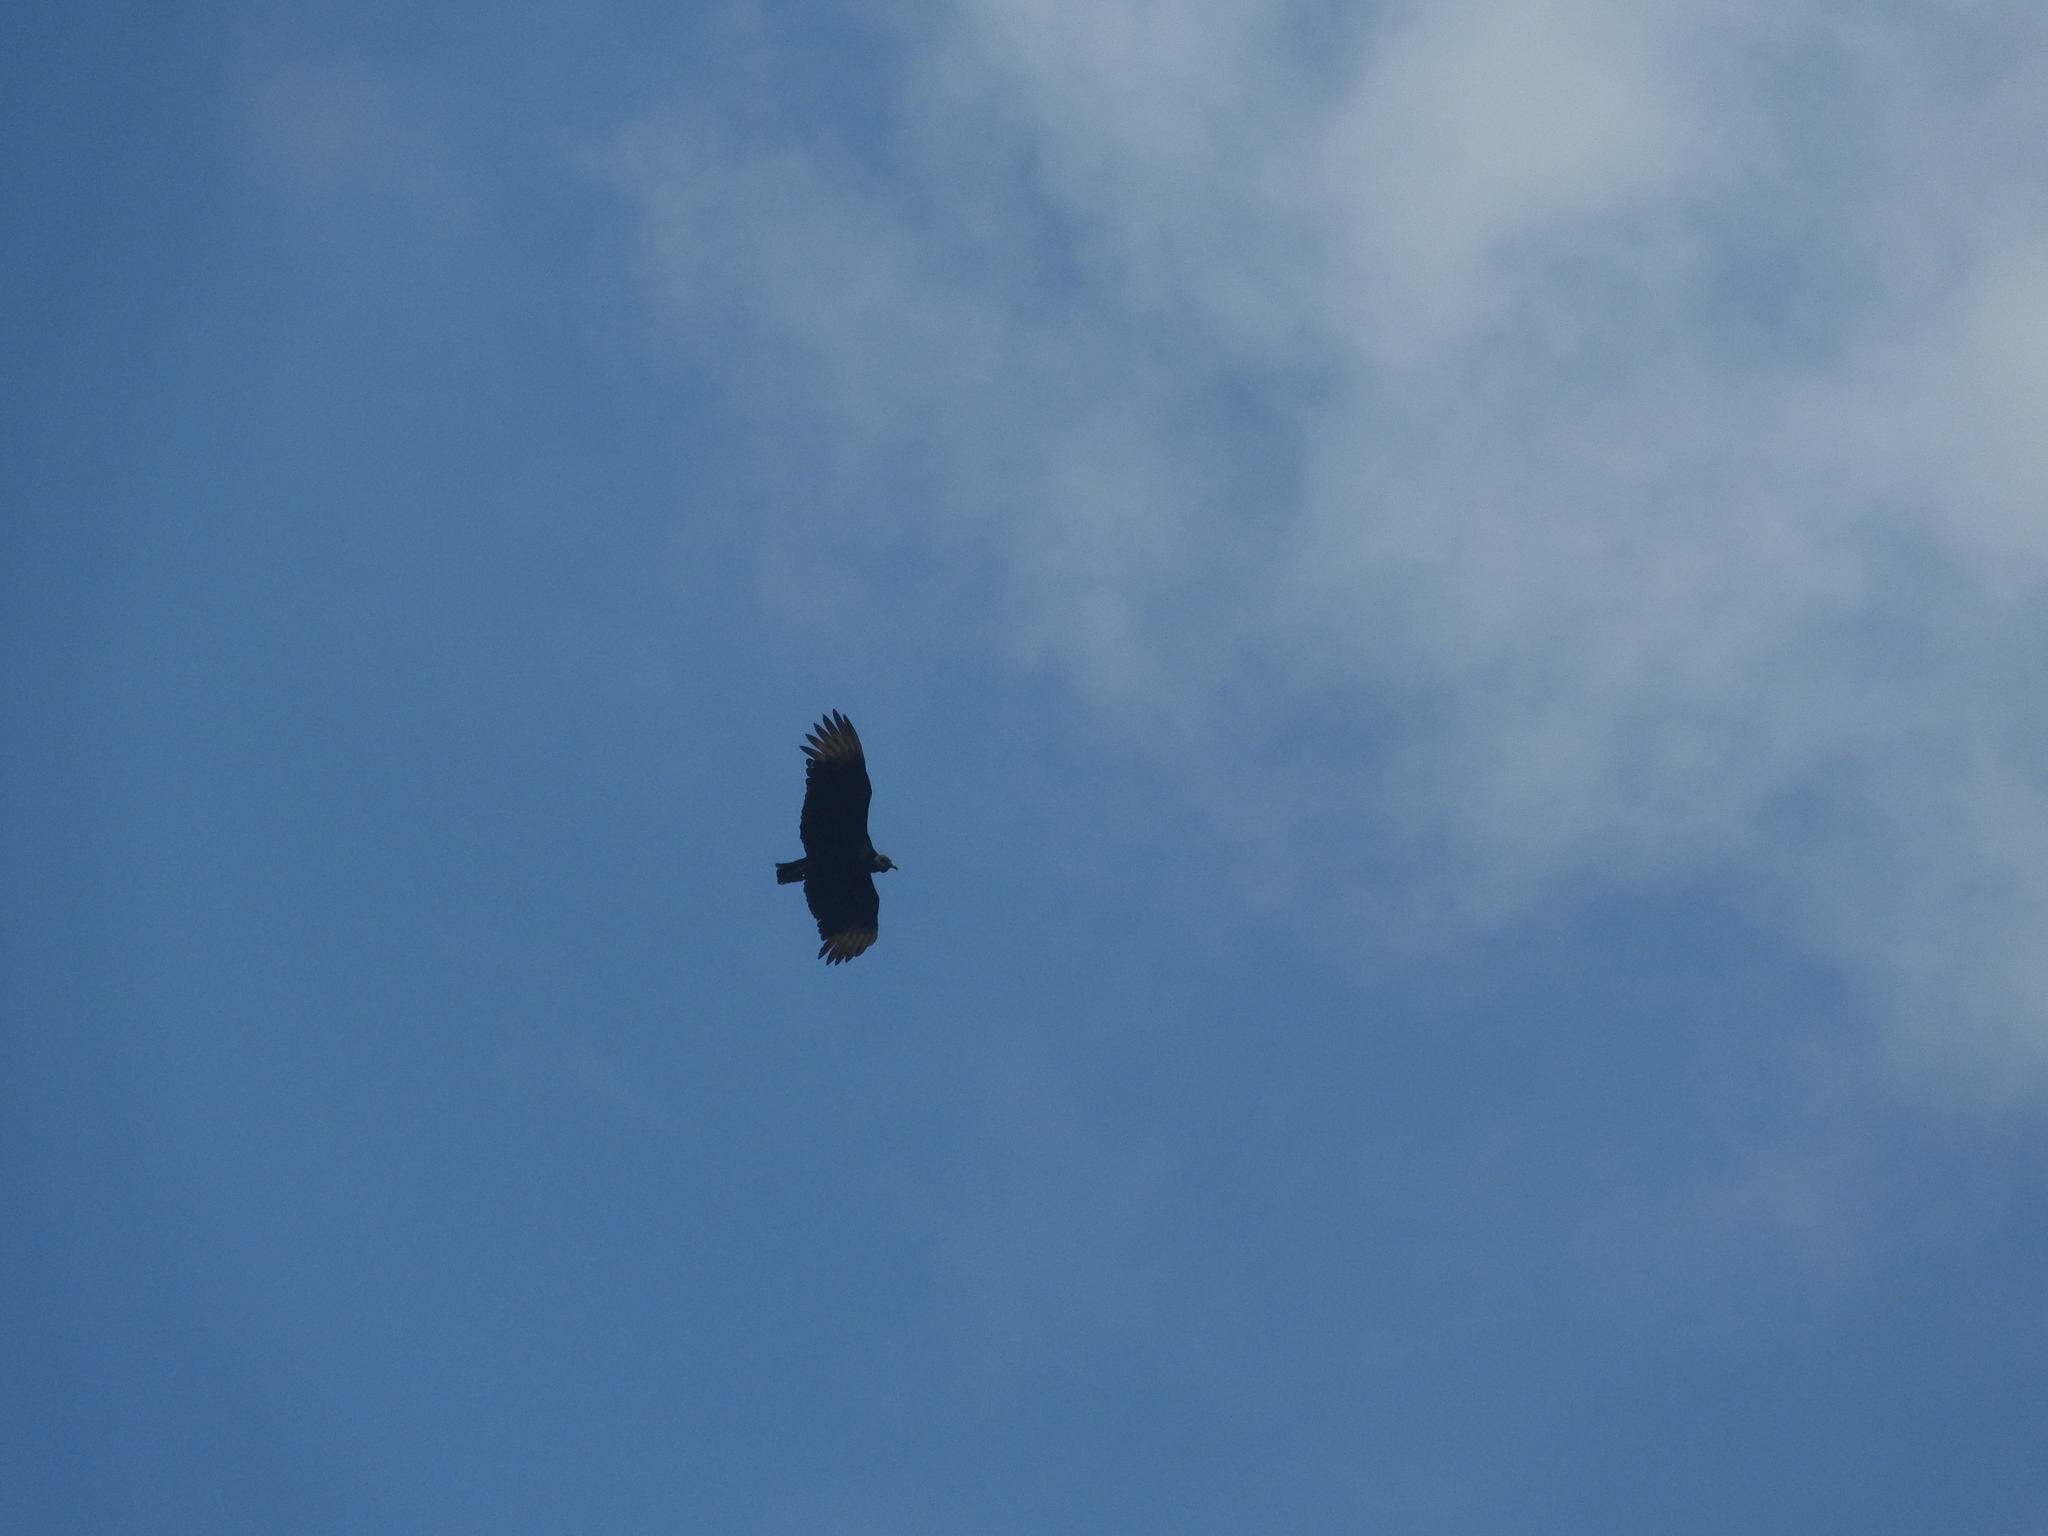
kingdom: Animalia
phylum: Chordata
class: Aves
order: Accipitriformes
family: Cathartidae
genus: Coragyps
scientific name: Coragyps atratus
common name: Black vulture
